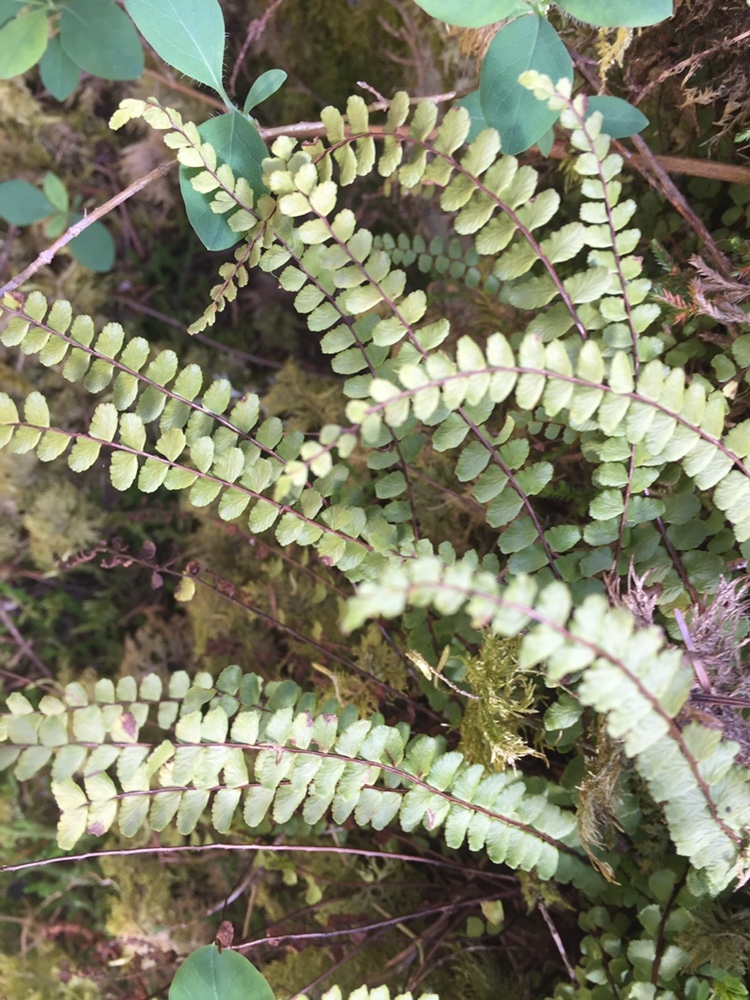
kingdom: Plantae
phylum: Tracheophyta
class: Polypodiopsida
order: Polypodiales
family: Aspleniaceae
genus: Asplenium
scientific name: Asplenium trichomanes
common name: Maidenhair spleenwort
